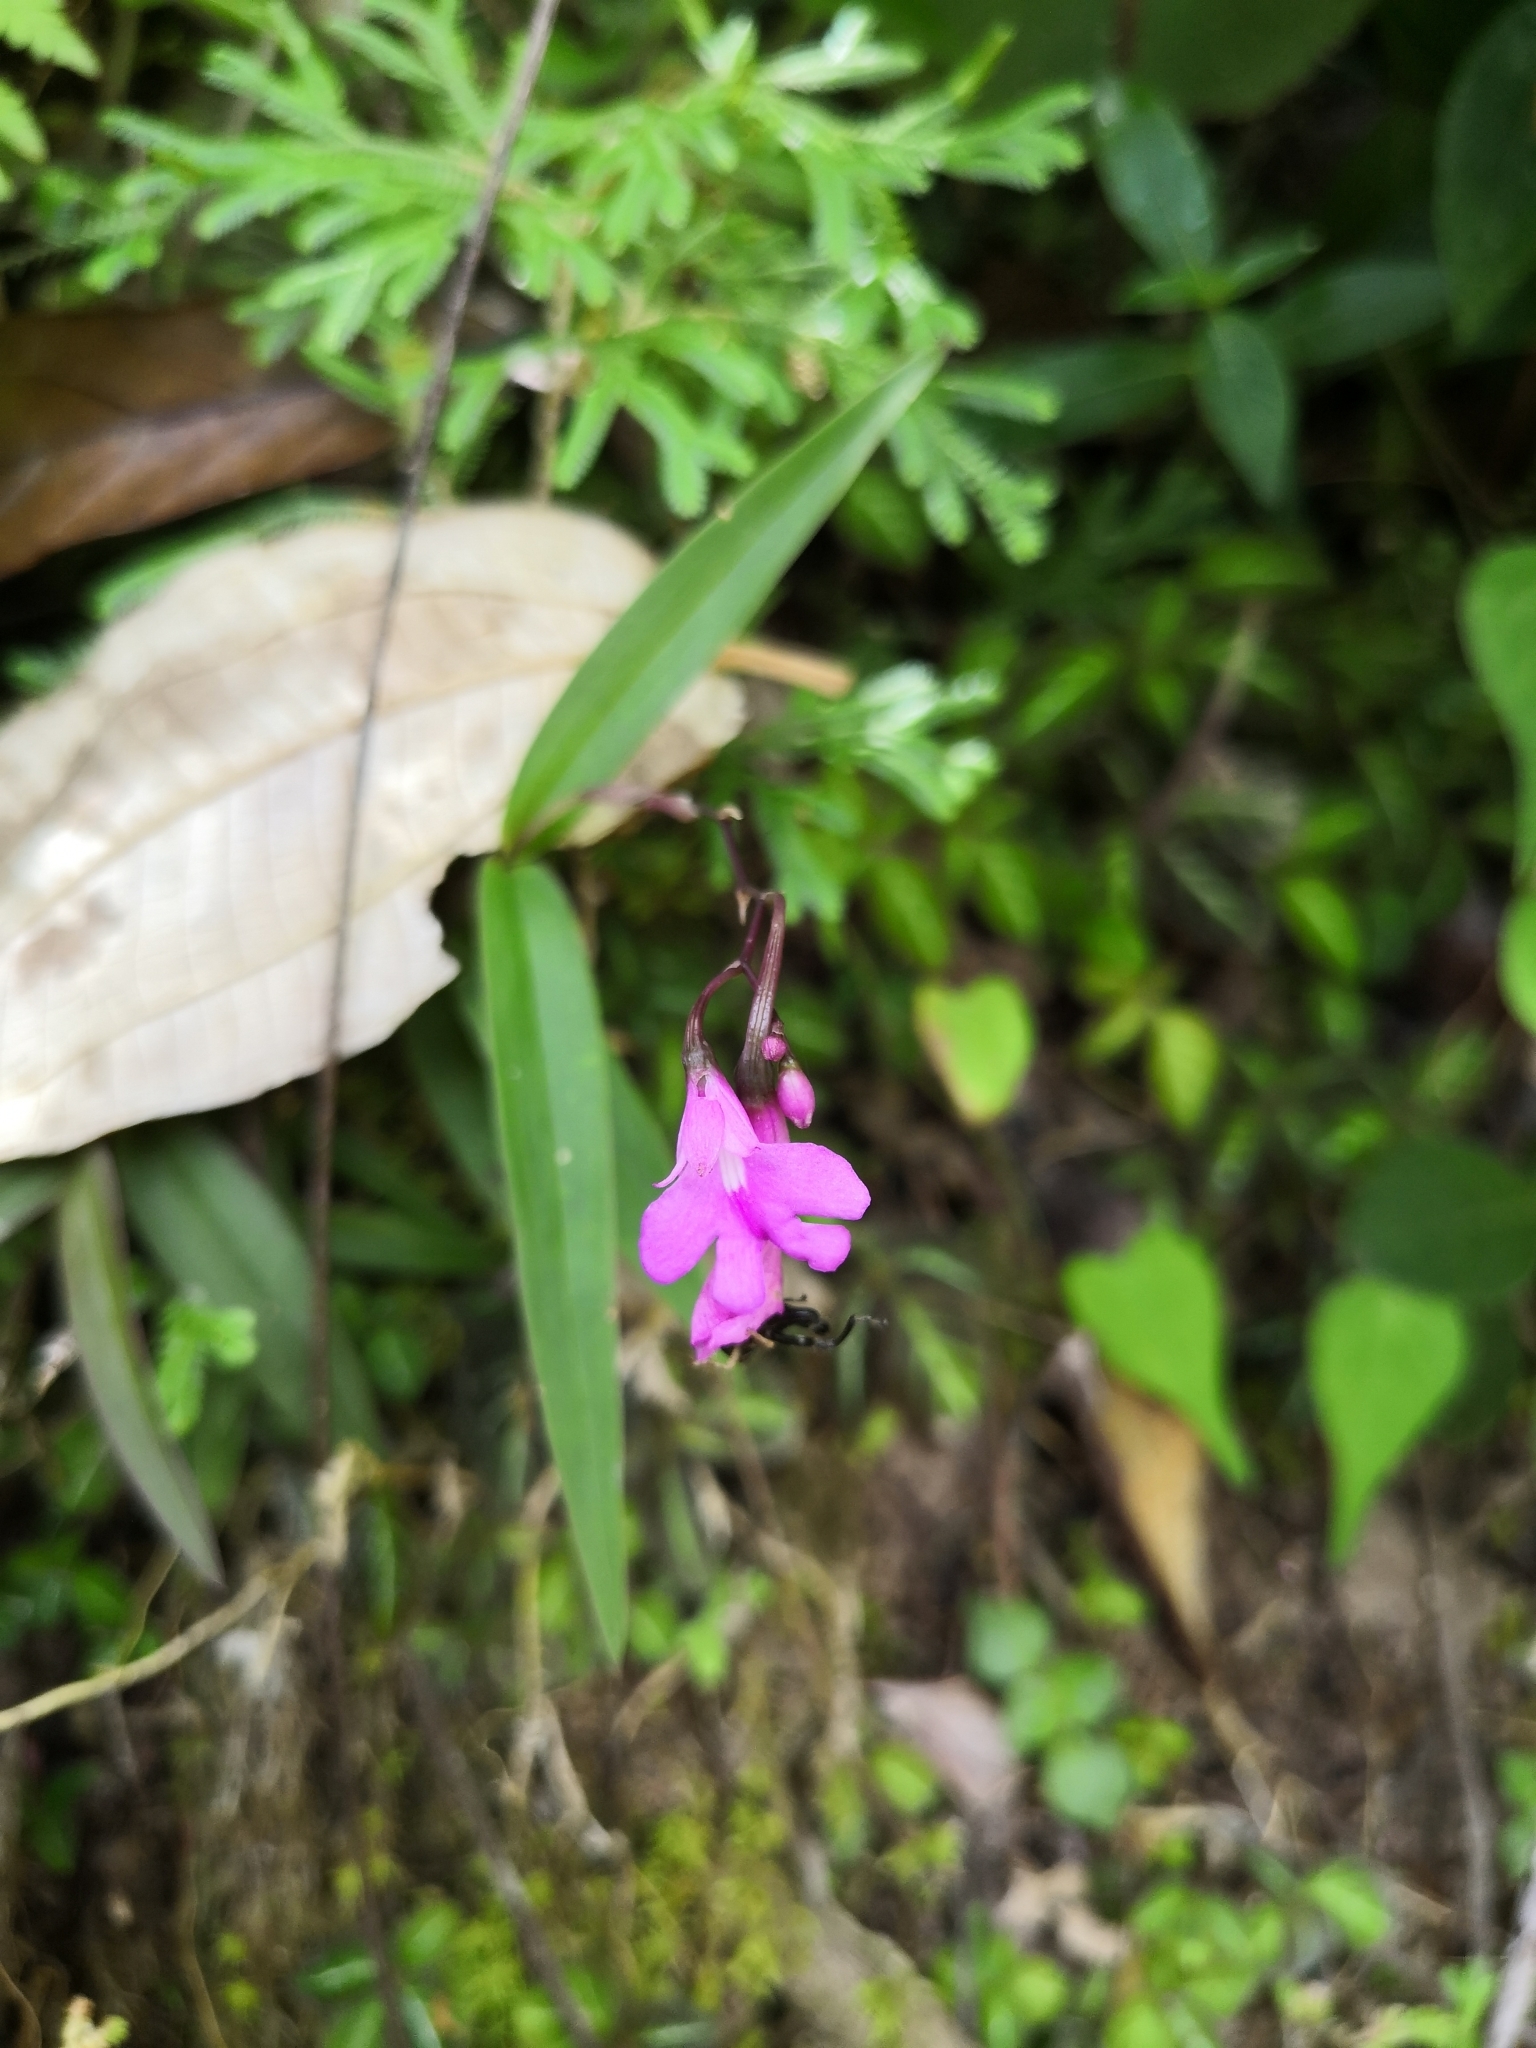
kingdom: Plantae
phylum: Tracheophyta
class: Liliopsida
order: Asparagales
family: Orchidaceae
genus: Epidendrum
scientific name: Epidendrum longicaule
